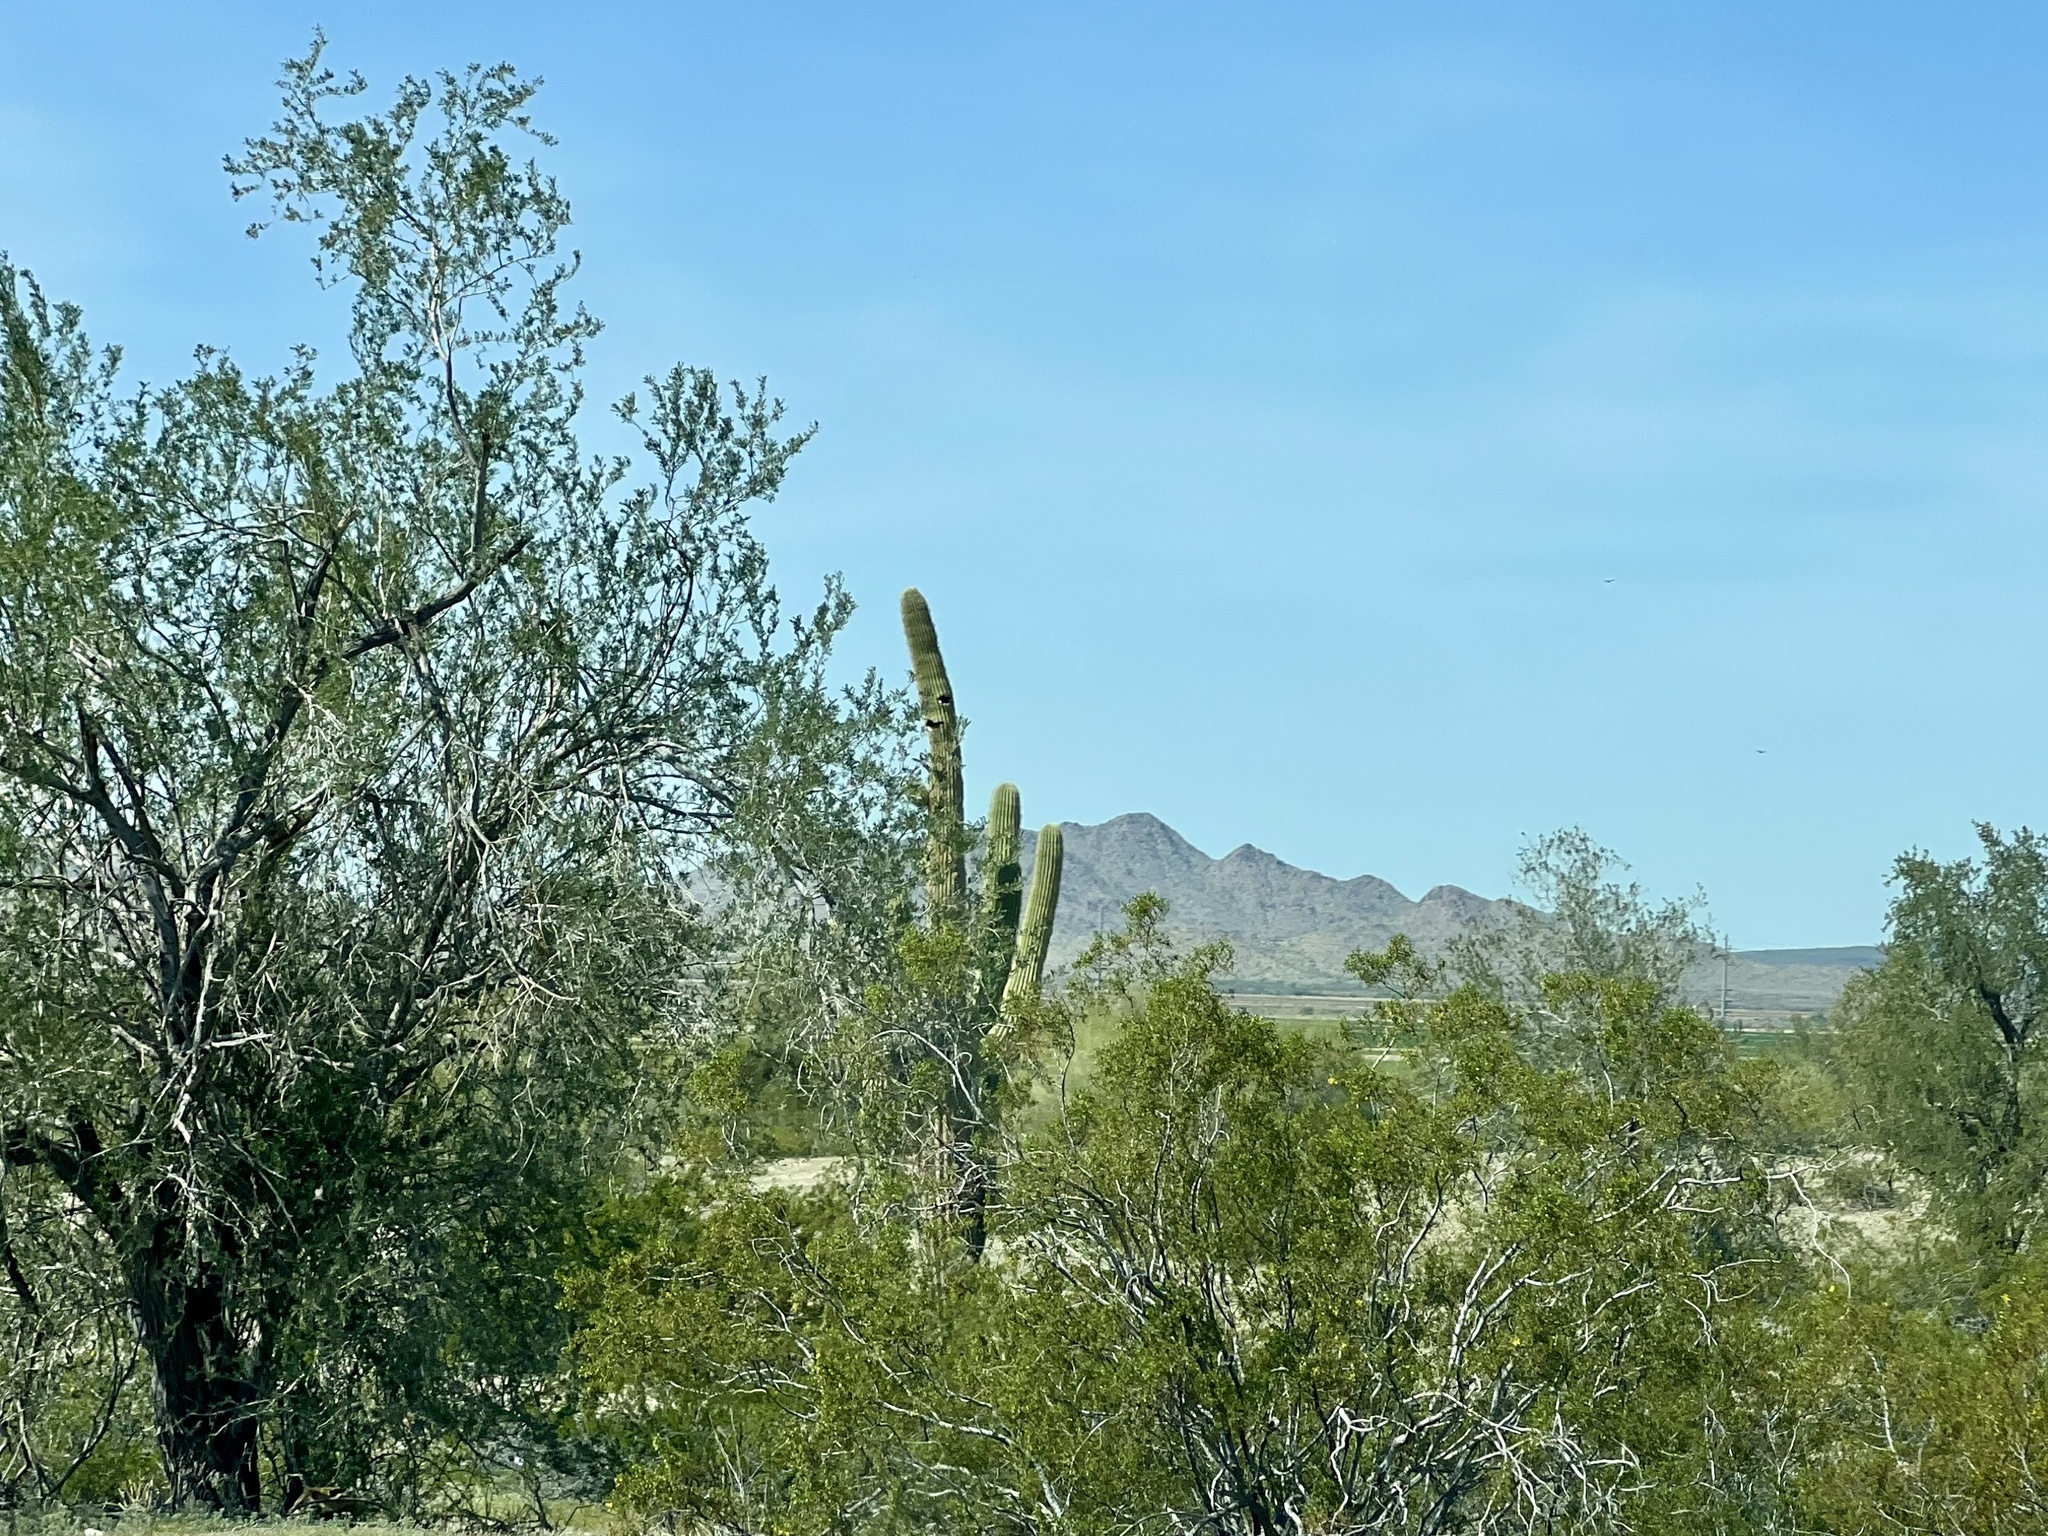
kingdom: Plantae
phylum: Tracheophyta
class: Magnoliopsida
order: Fabales
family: Fabaceae
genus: Olneya
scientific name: Olneya tesota
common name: Desert ironwood
